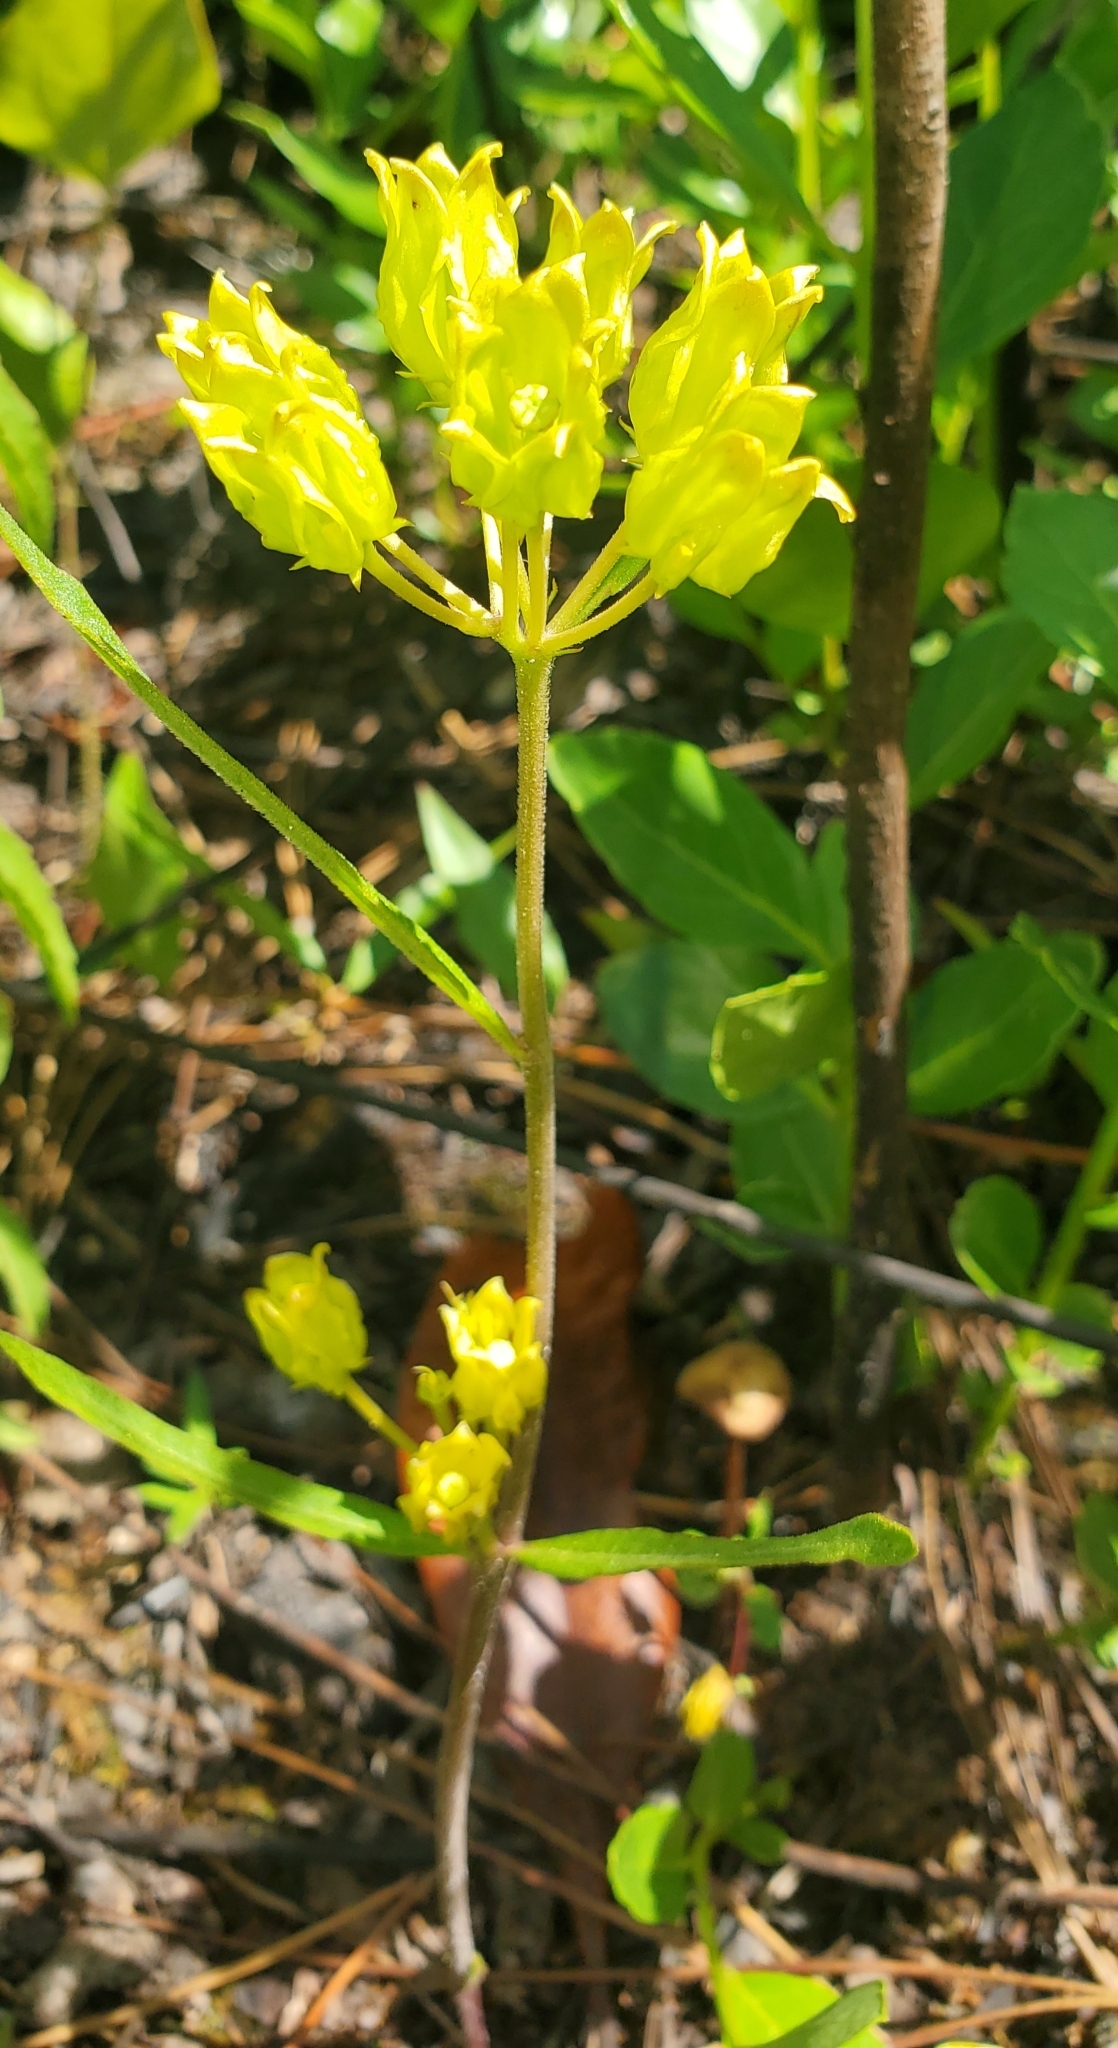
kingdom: Plantae
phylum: Tracheophyta
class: Magnoliopsida
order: Gentianales
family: Apocynaceae
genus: Asclepias
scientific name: Asclepias pedicellata
